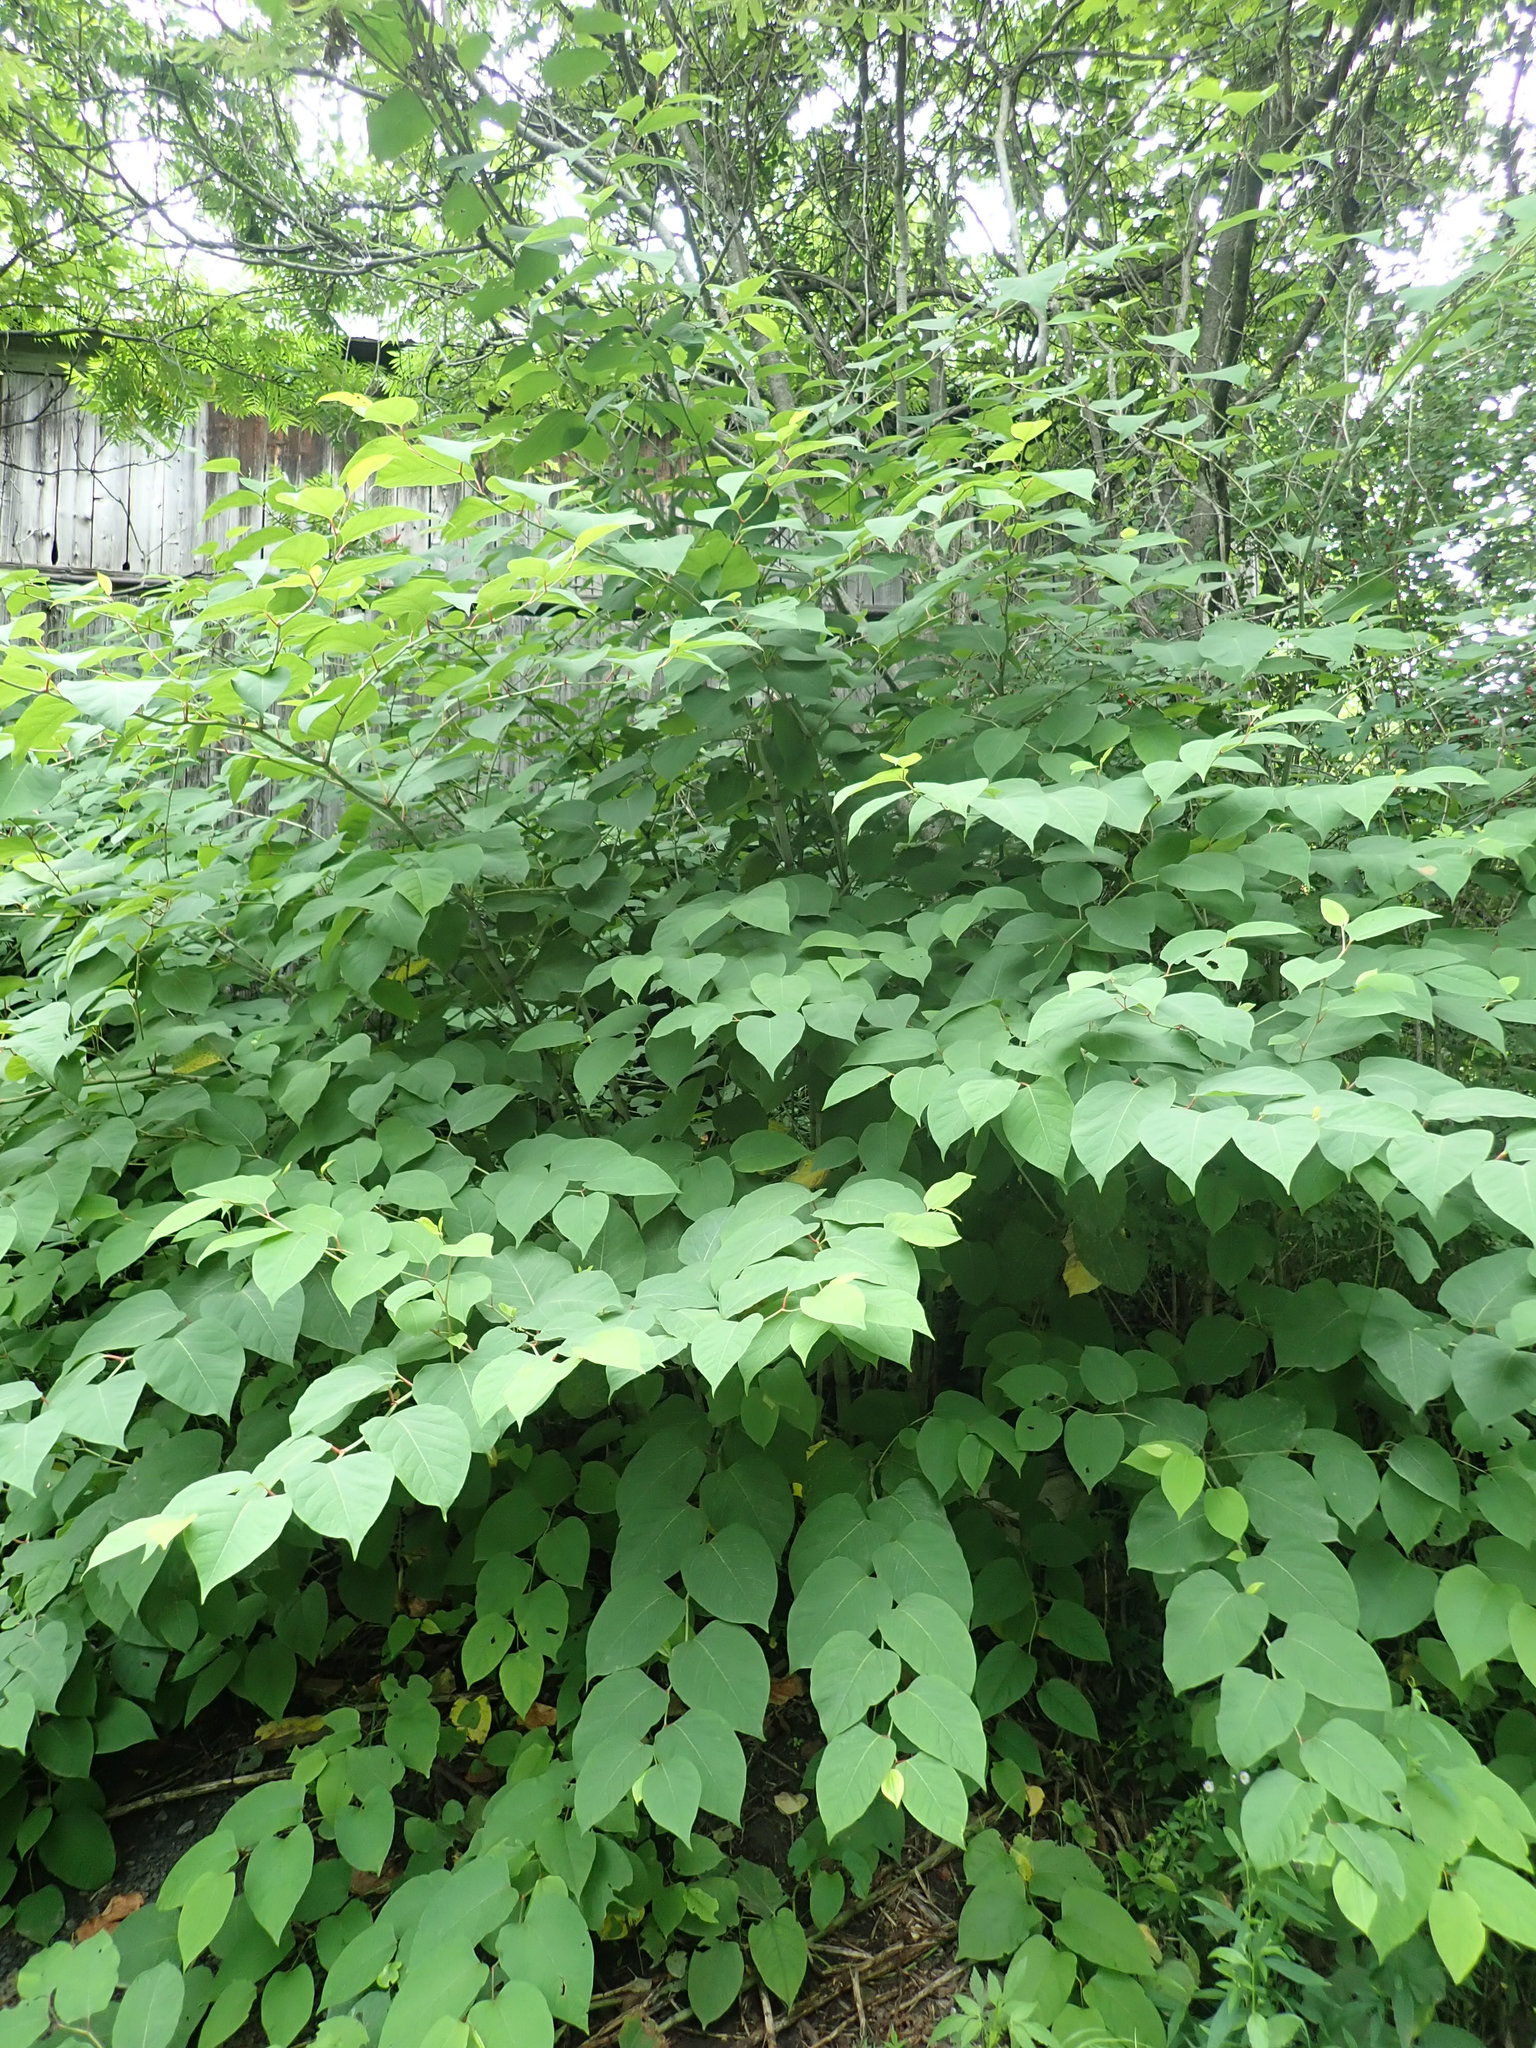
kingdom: Plantae
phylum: Tracheophyta
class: Magnoliopsida
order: Caryophyllales
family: Polygonaceae
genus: Reynoutria
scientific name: Reynoutria japonica
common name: Japanese knotweed
